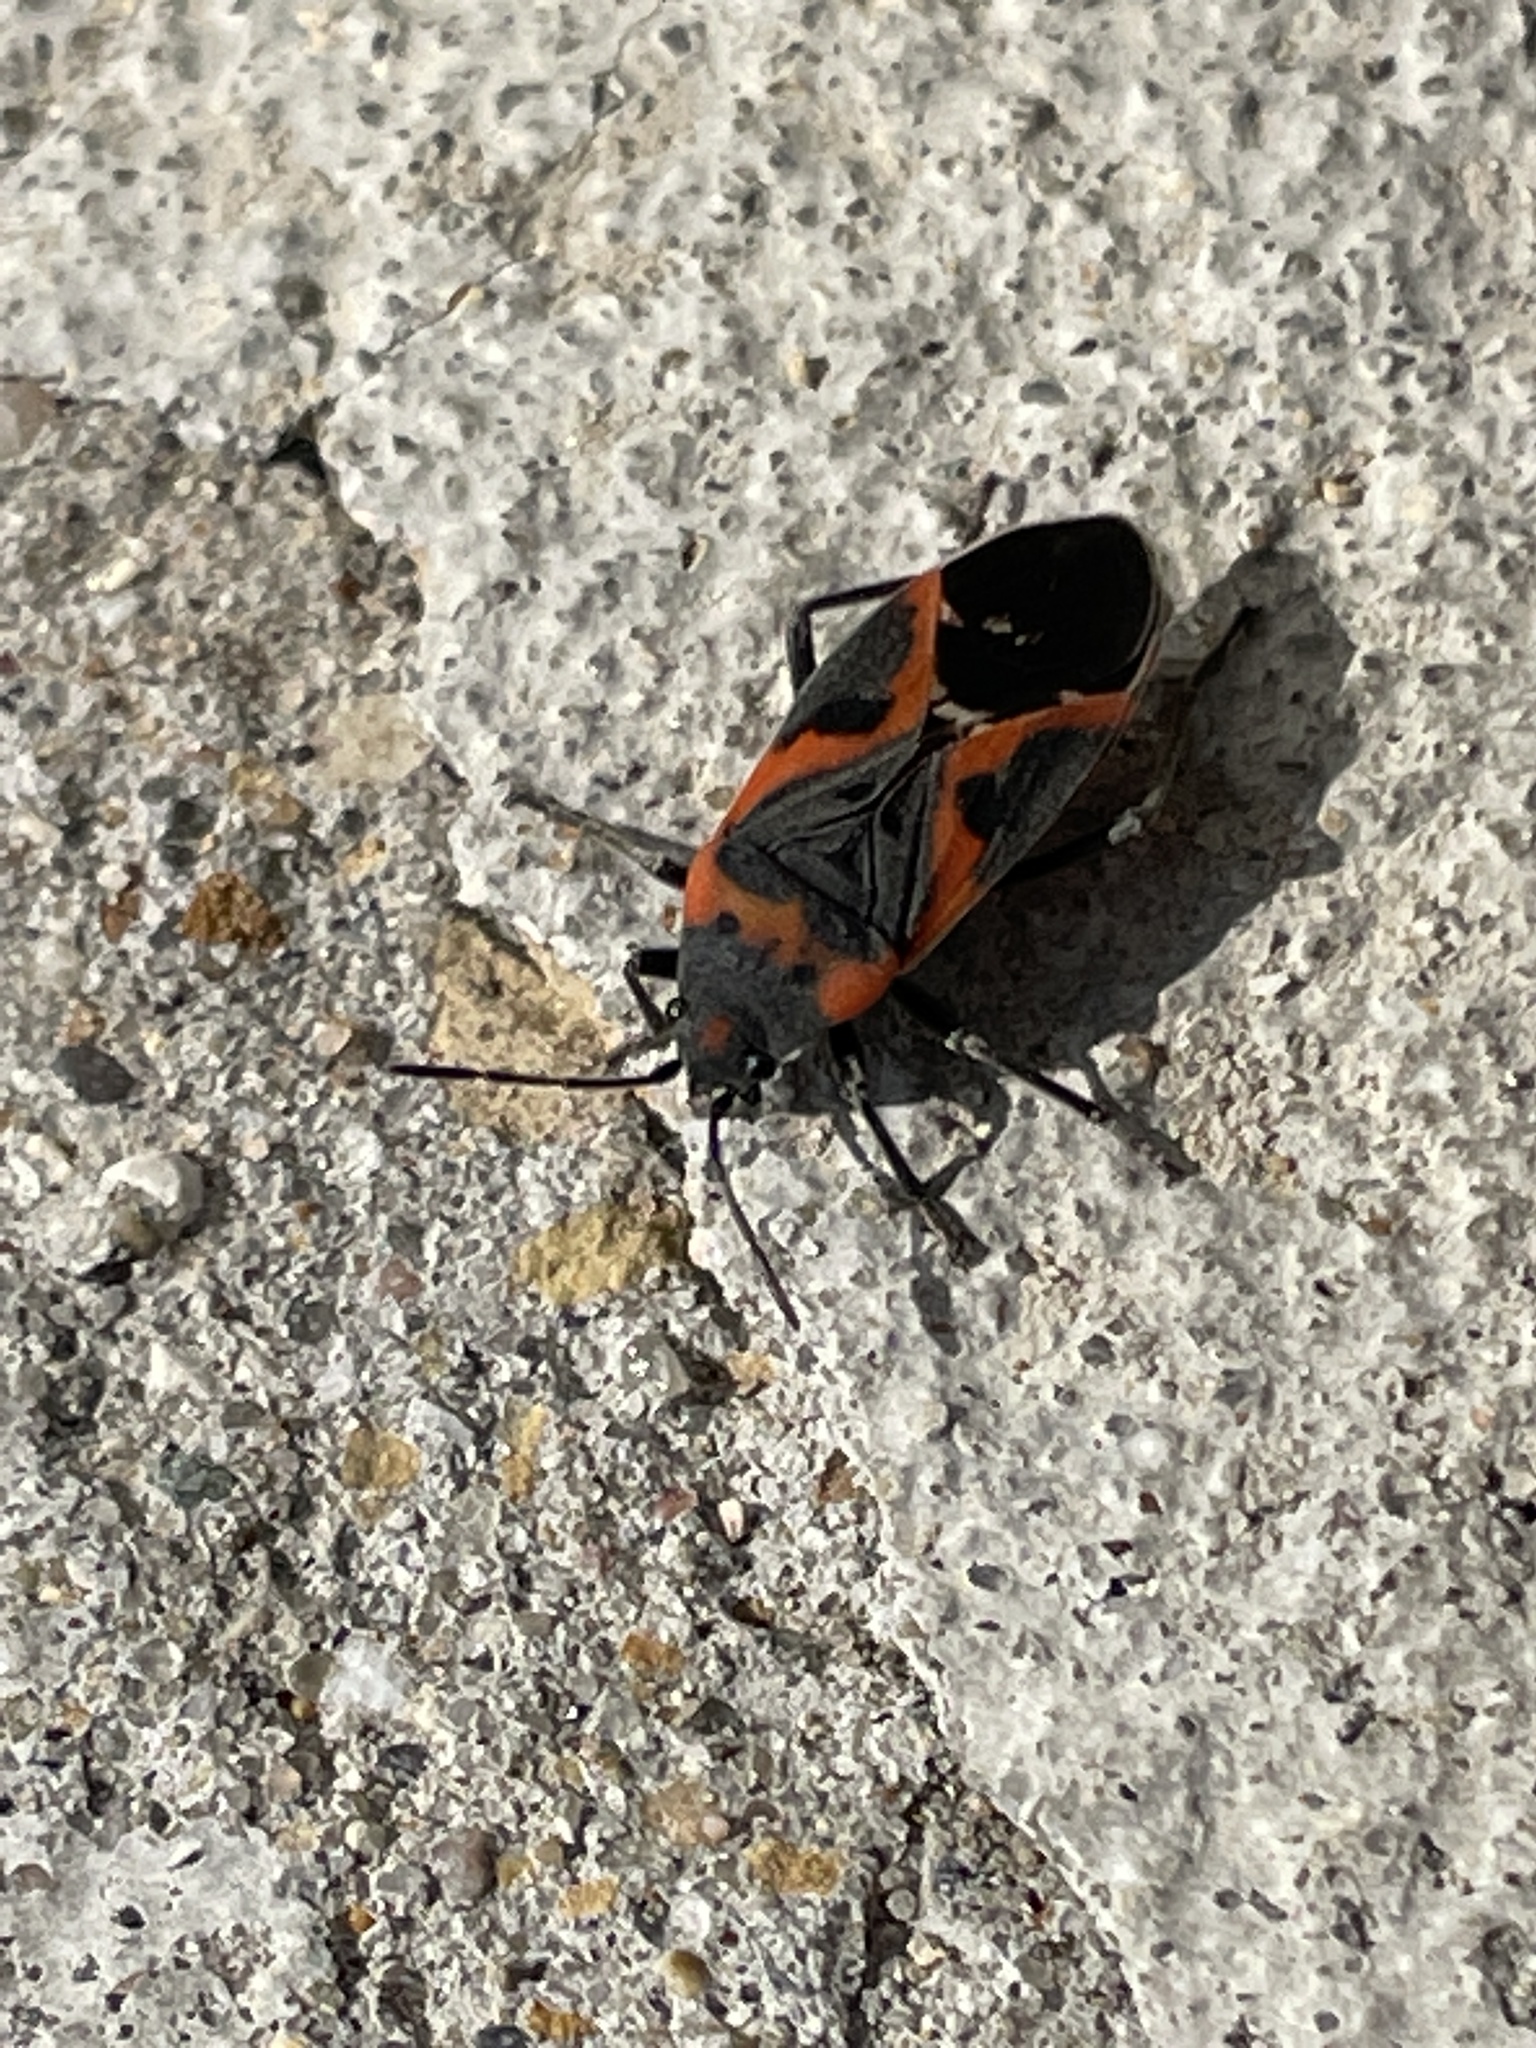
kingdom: Animalia
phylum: Arthropoda
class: Insecta
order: Hemiptera
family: Lygaeidae
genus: Lygaeus
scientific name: Lygaeus kalmii
